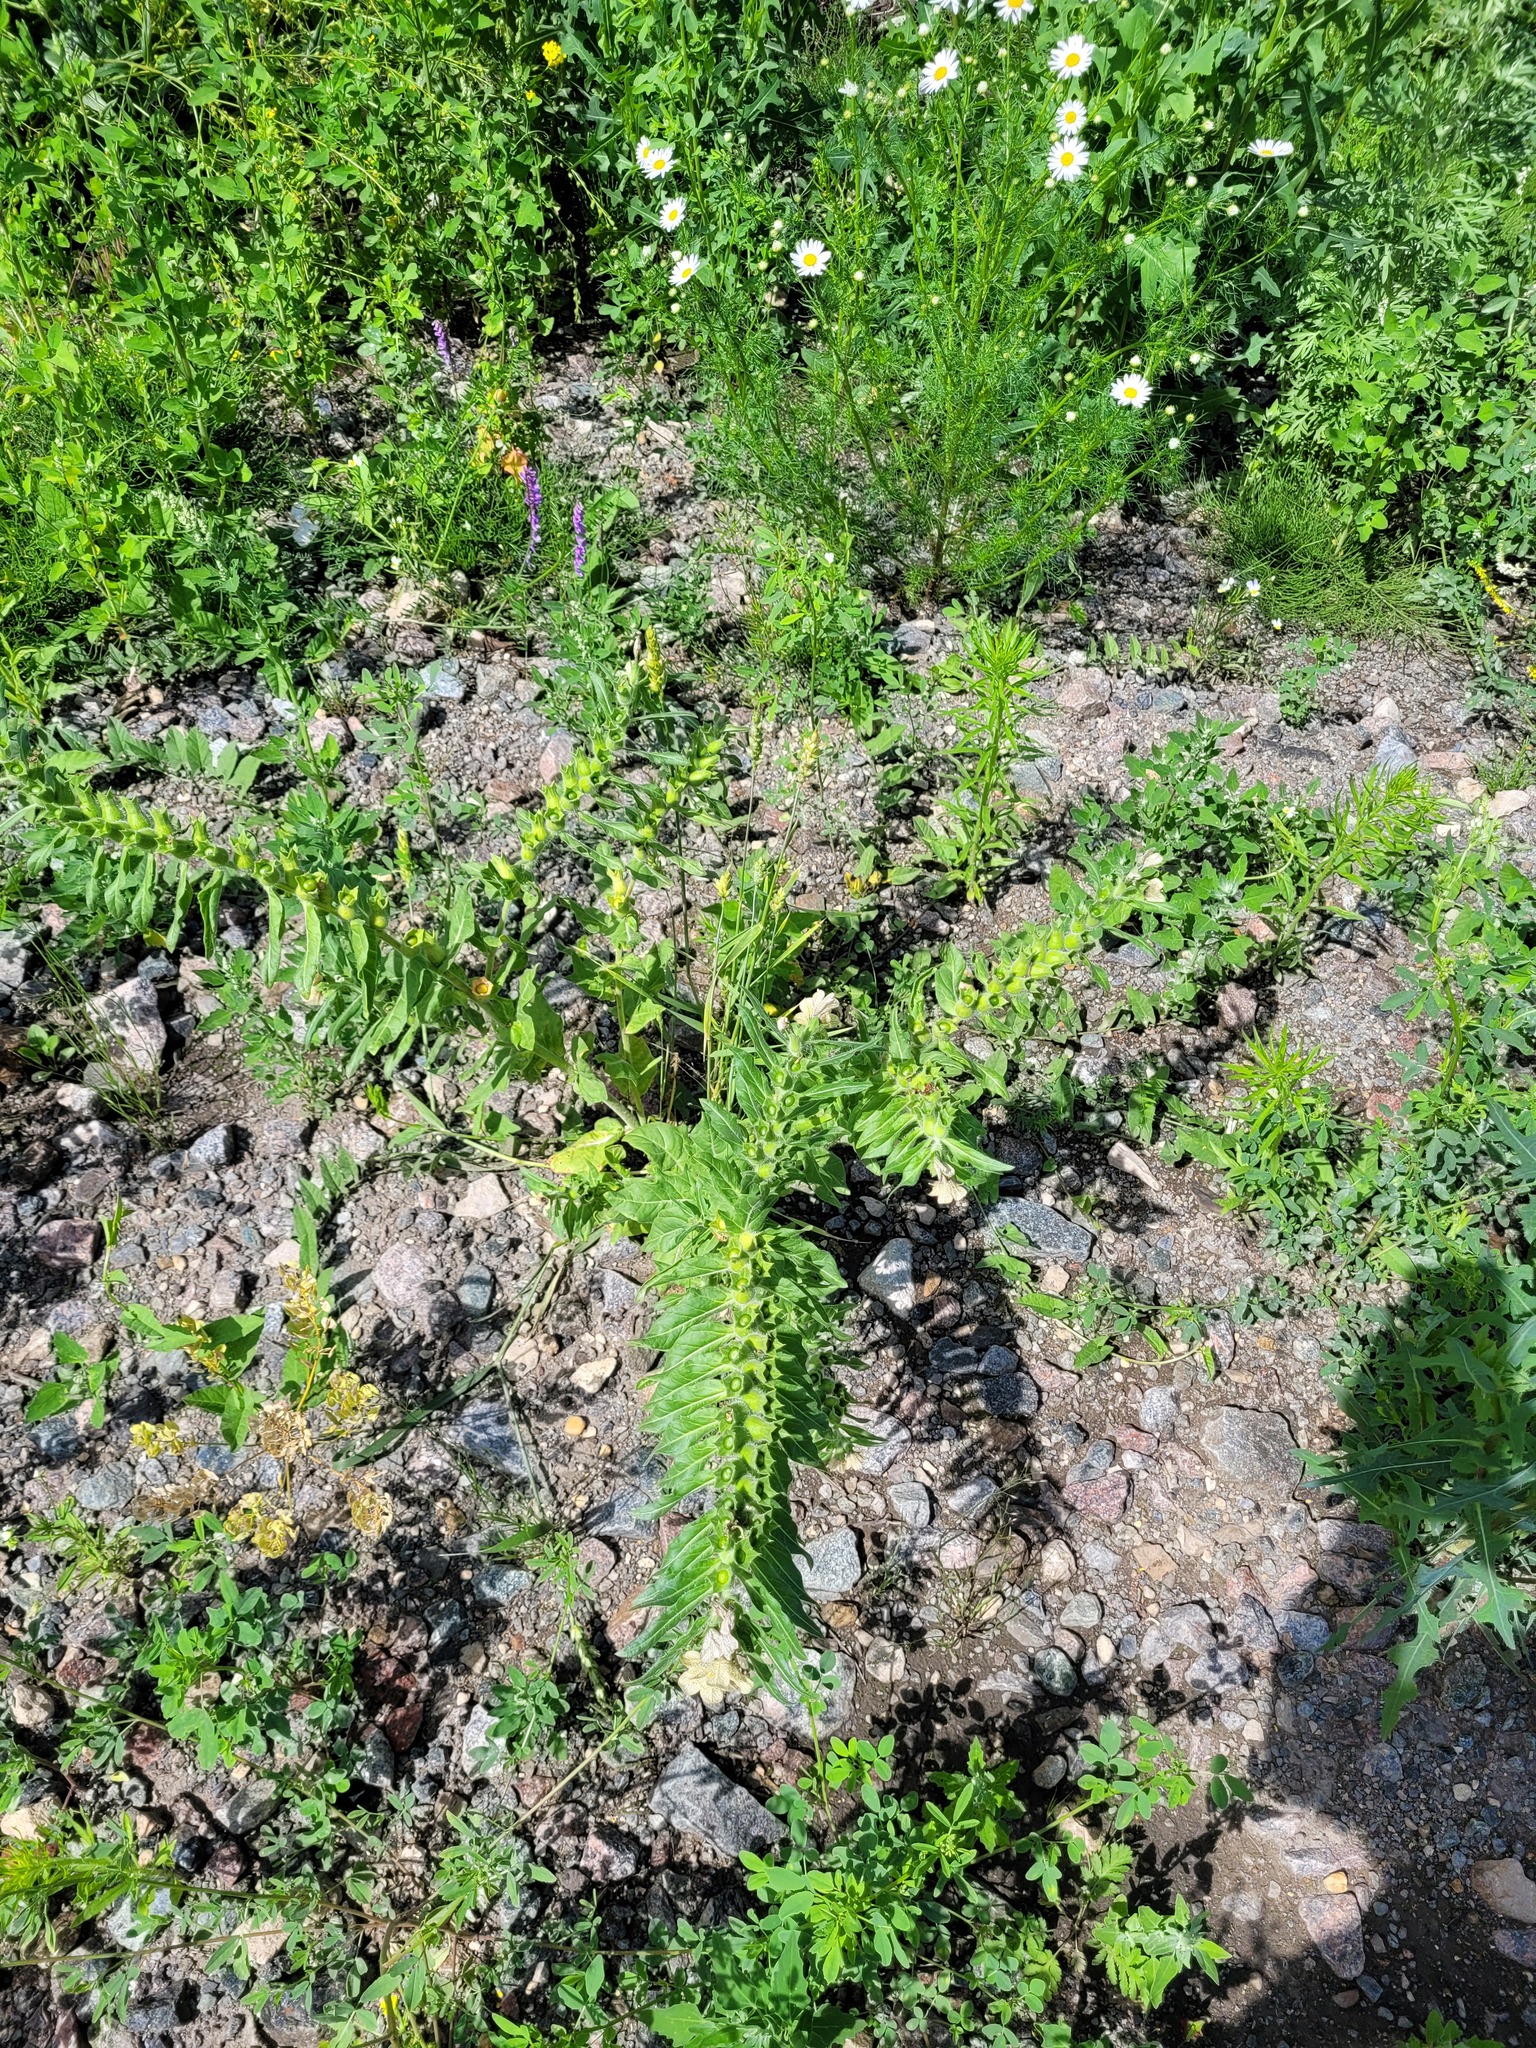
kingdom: Plantae
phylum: Tracheophyta
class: Magnoliopsida
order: Solanales
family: Solanaceae
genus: Hyoscyamus
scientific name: Hyoscyamus niger
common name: Henbane
